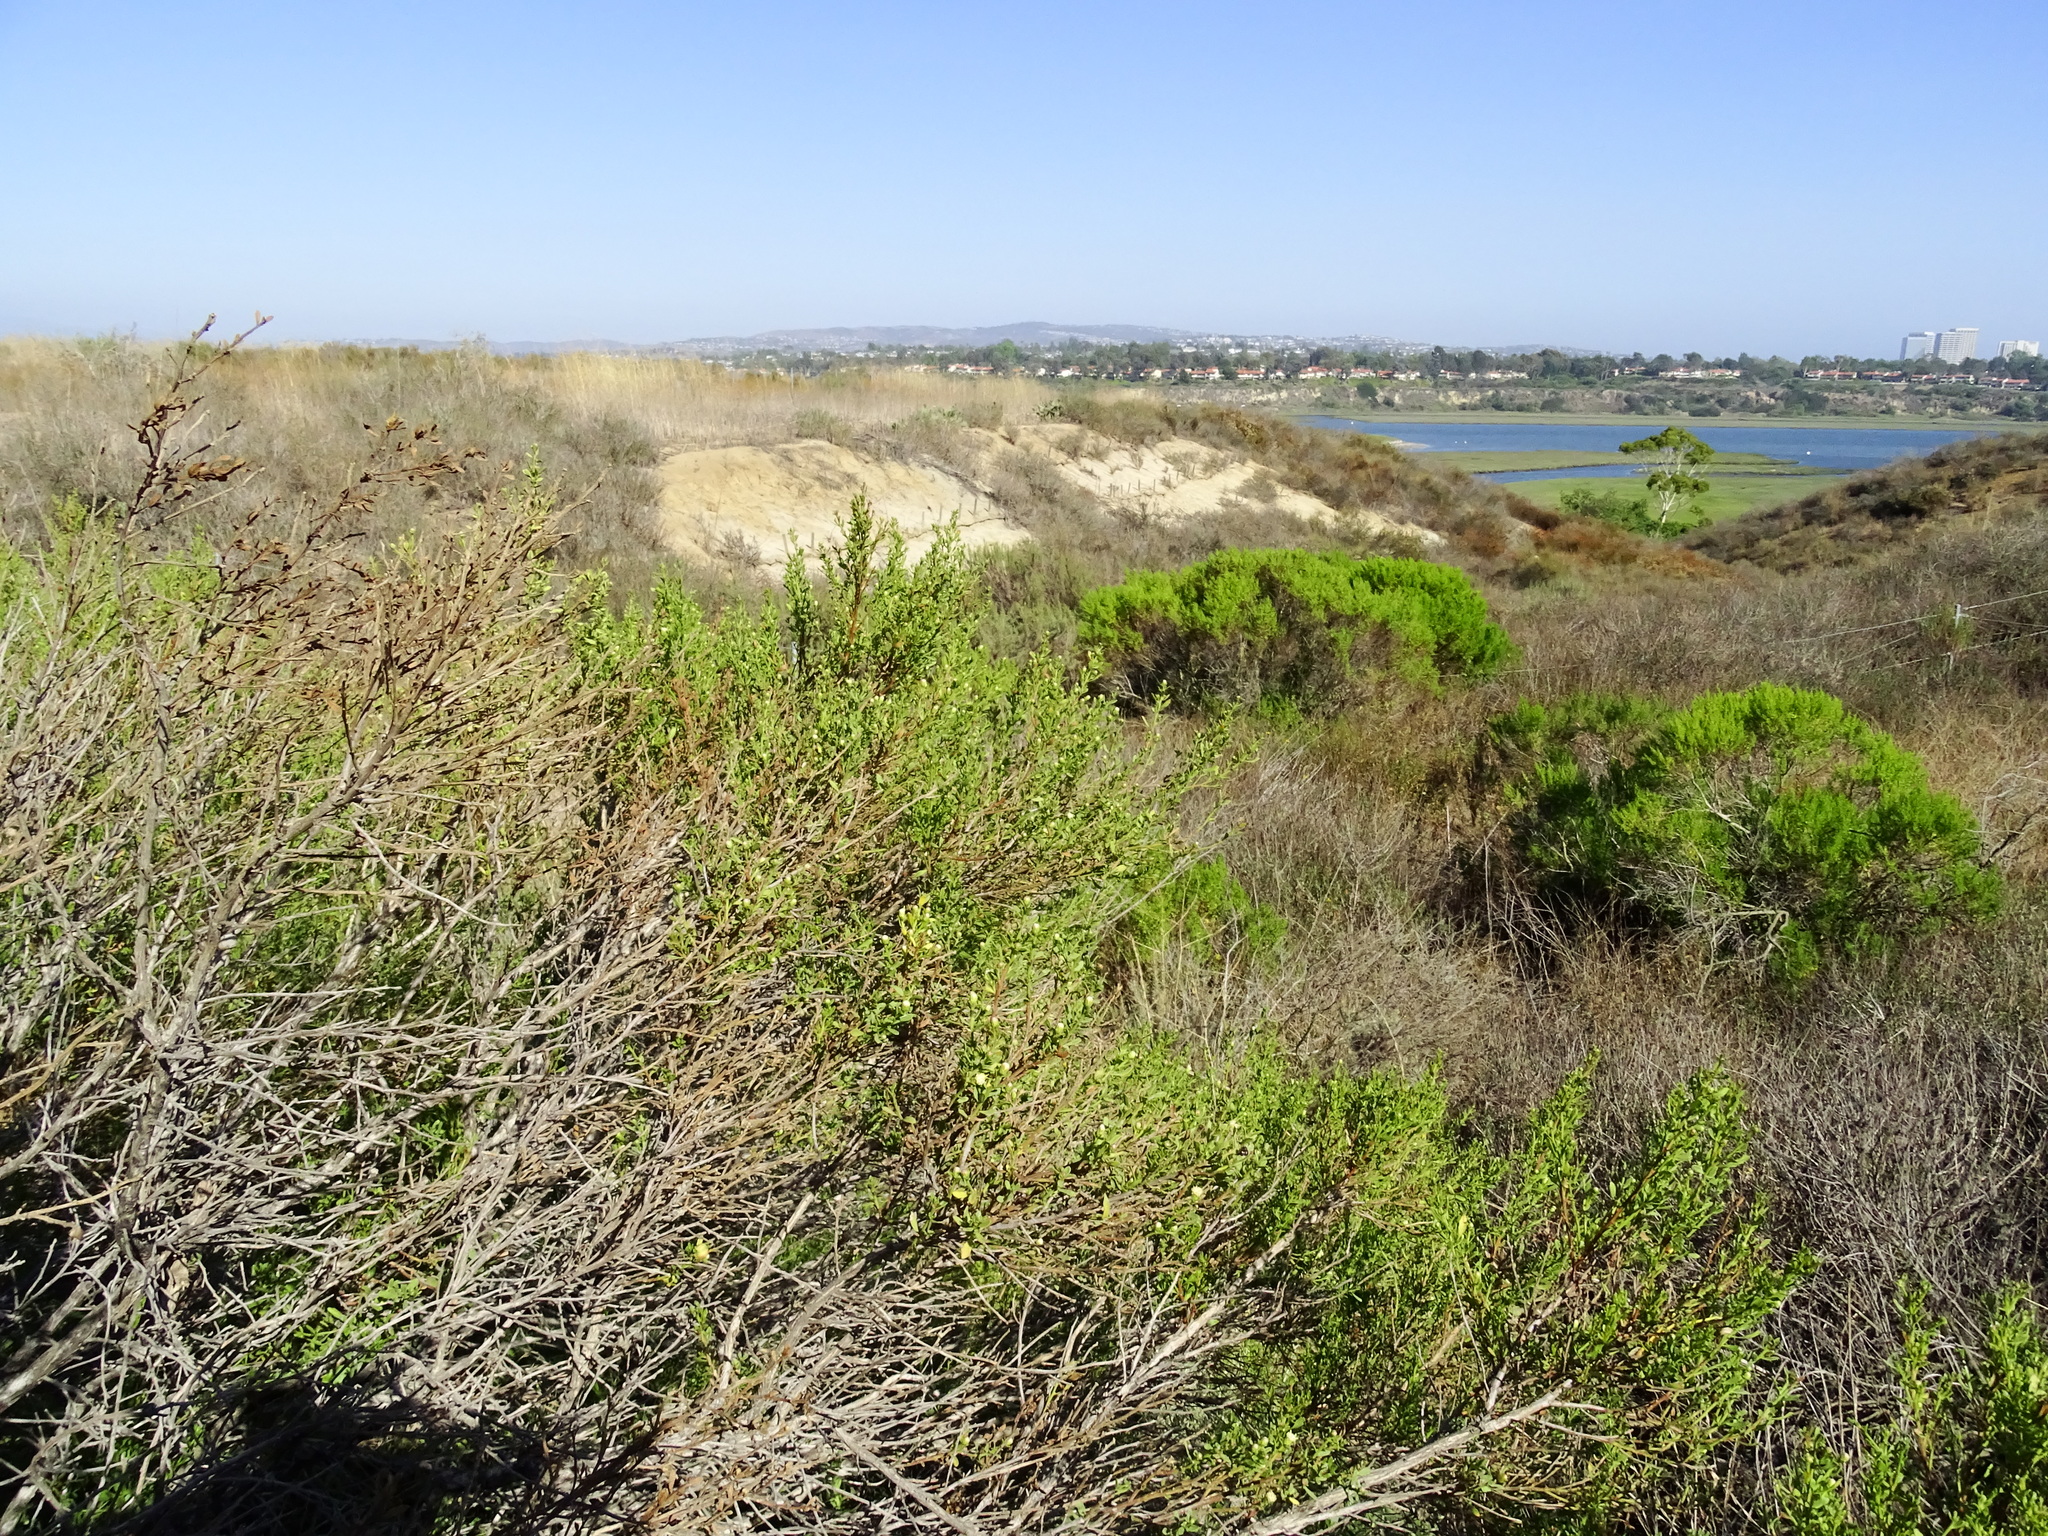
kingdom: Plantae
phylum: Tracheophyta
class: Magnoliopsida
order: Asterales
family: Asteraceae
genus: Baccharis
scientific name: Baccharis pilularis
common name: Coyotebrush
